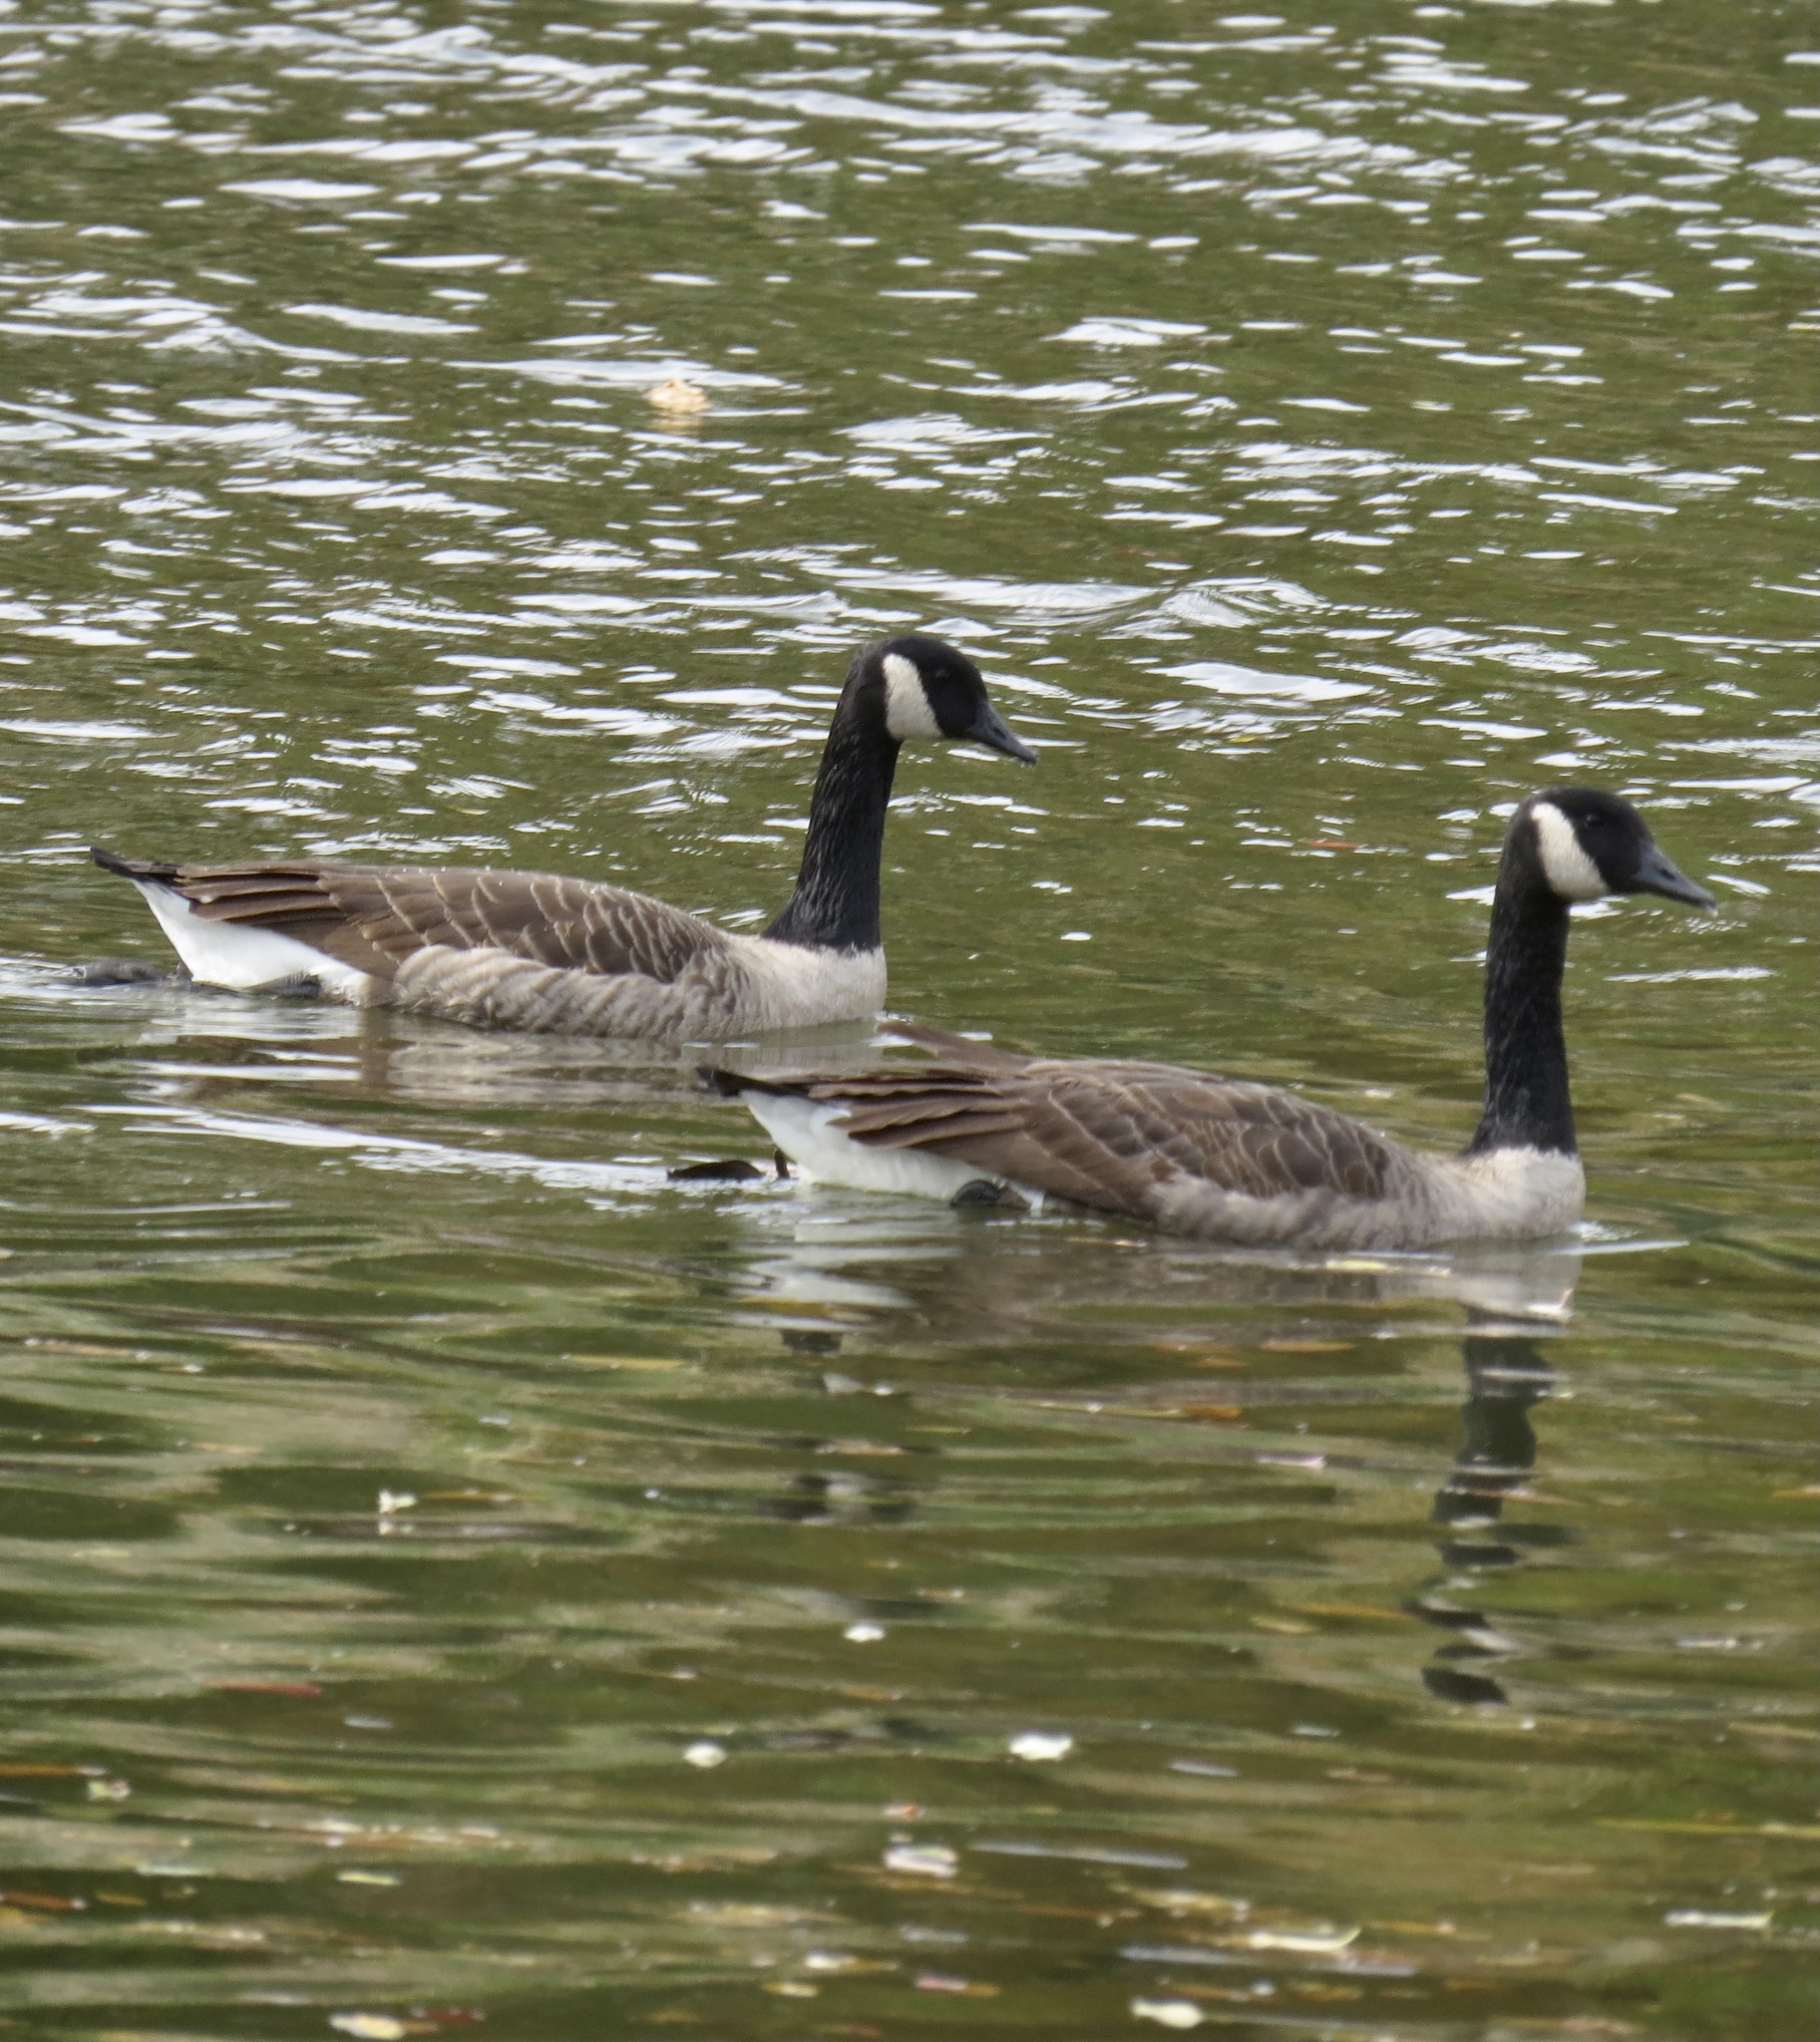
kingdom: Animalia
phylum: Chordata
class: Aves
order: Anseriformes
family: Anatidae
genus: Branta
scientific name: Branta canadensis
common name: Canada goose
